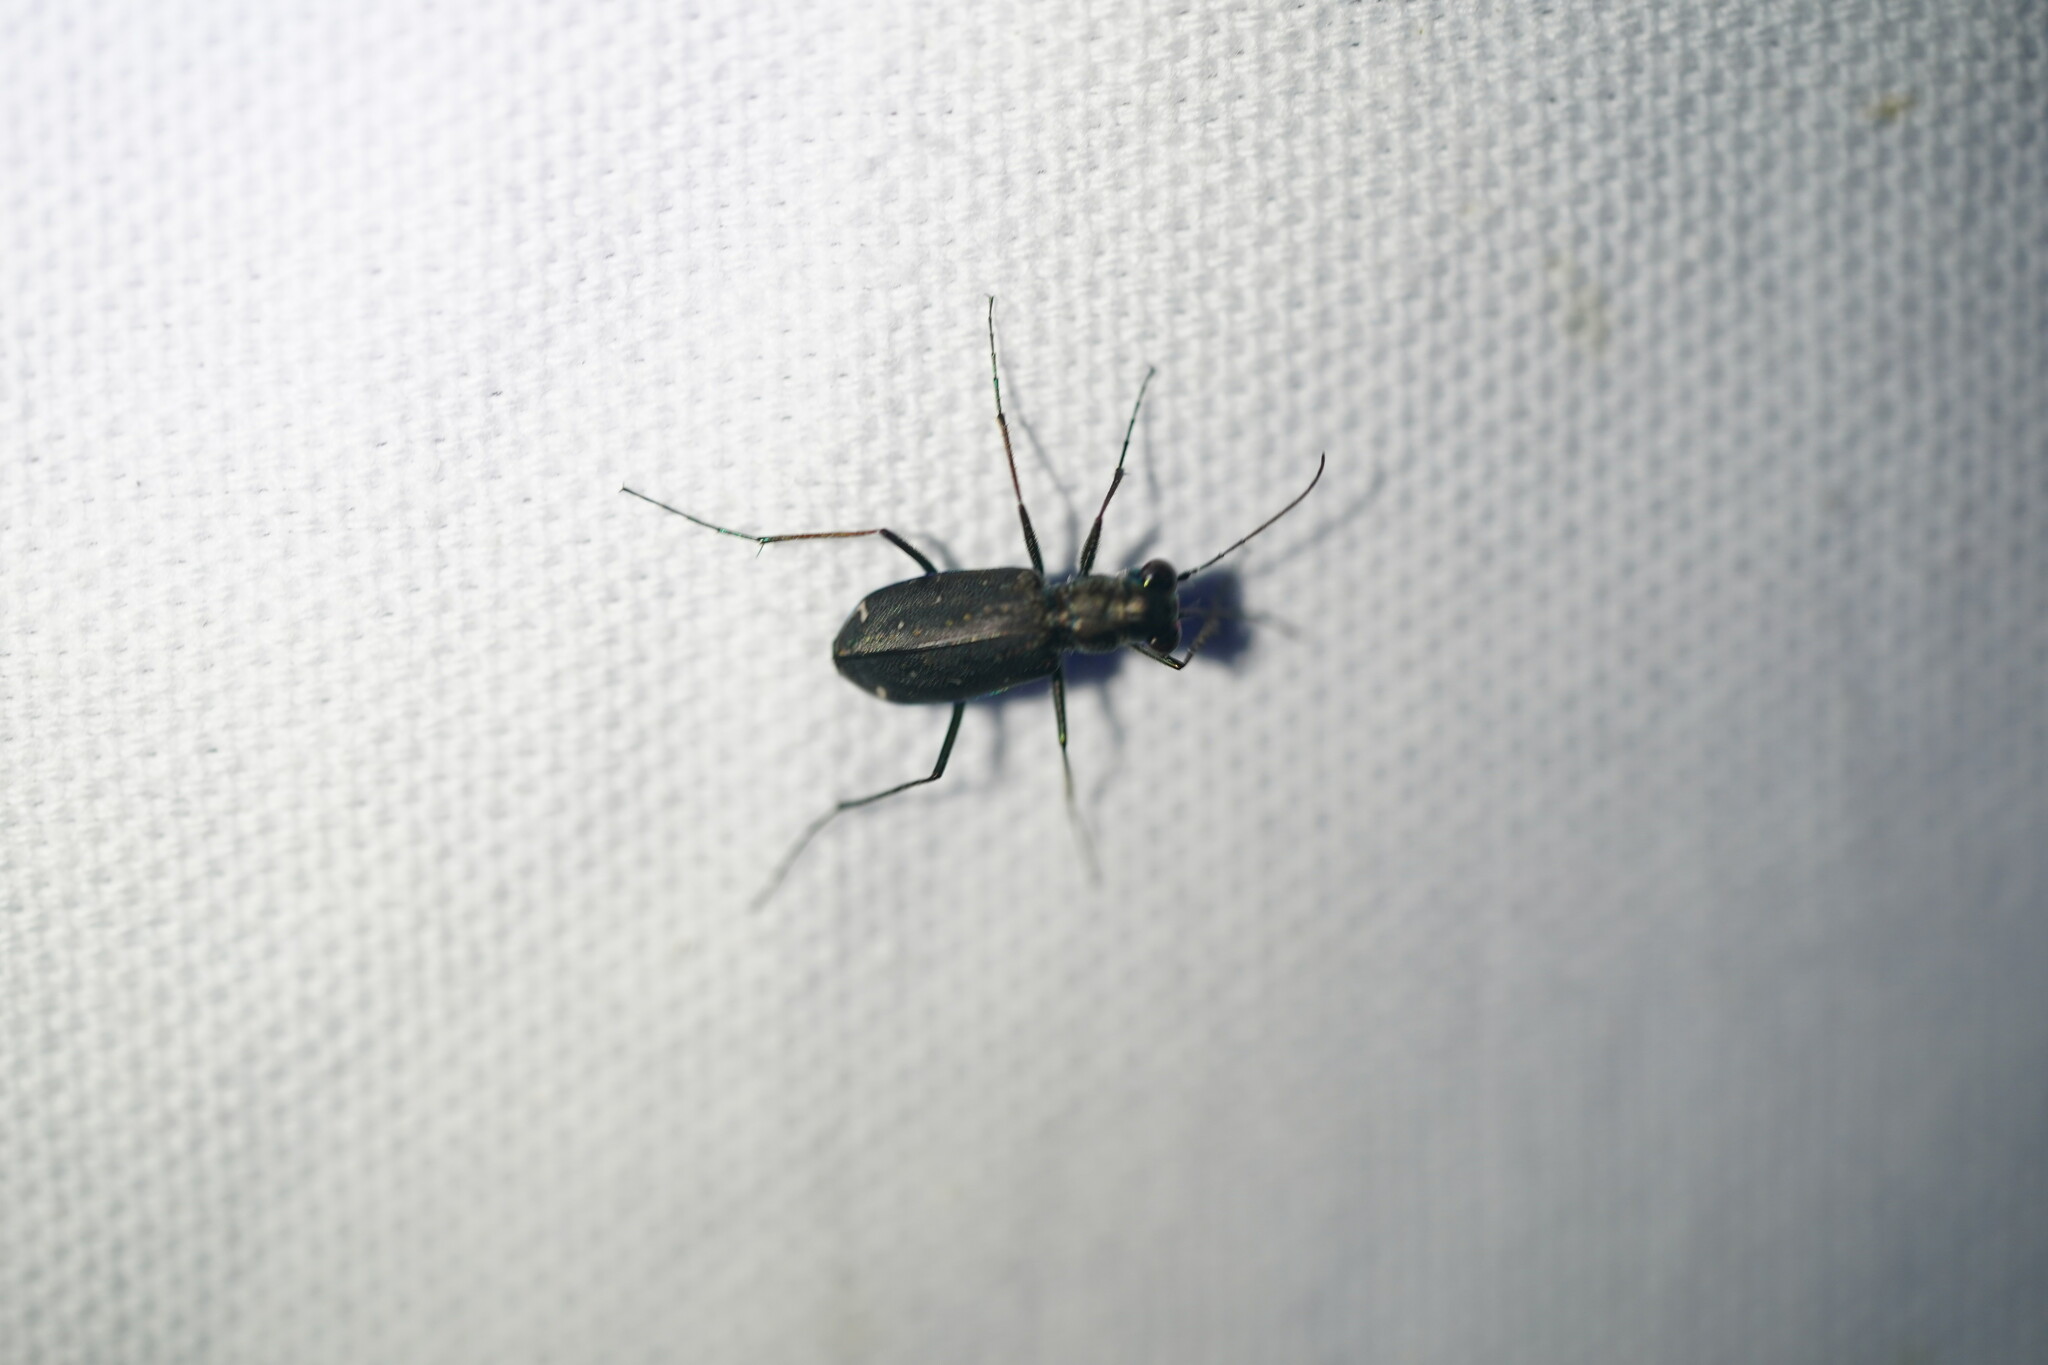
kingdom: Animalia
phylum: Arthropoda
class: Insecta
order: Coleoptera
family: Carabidae
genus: Cicindela
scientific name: Cicindela punctulata
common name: Punctured tiger beetle
